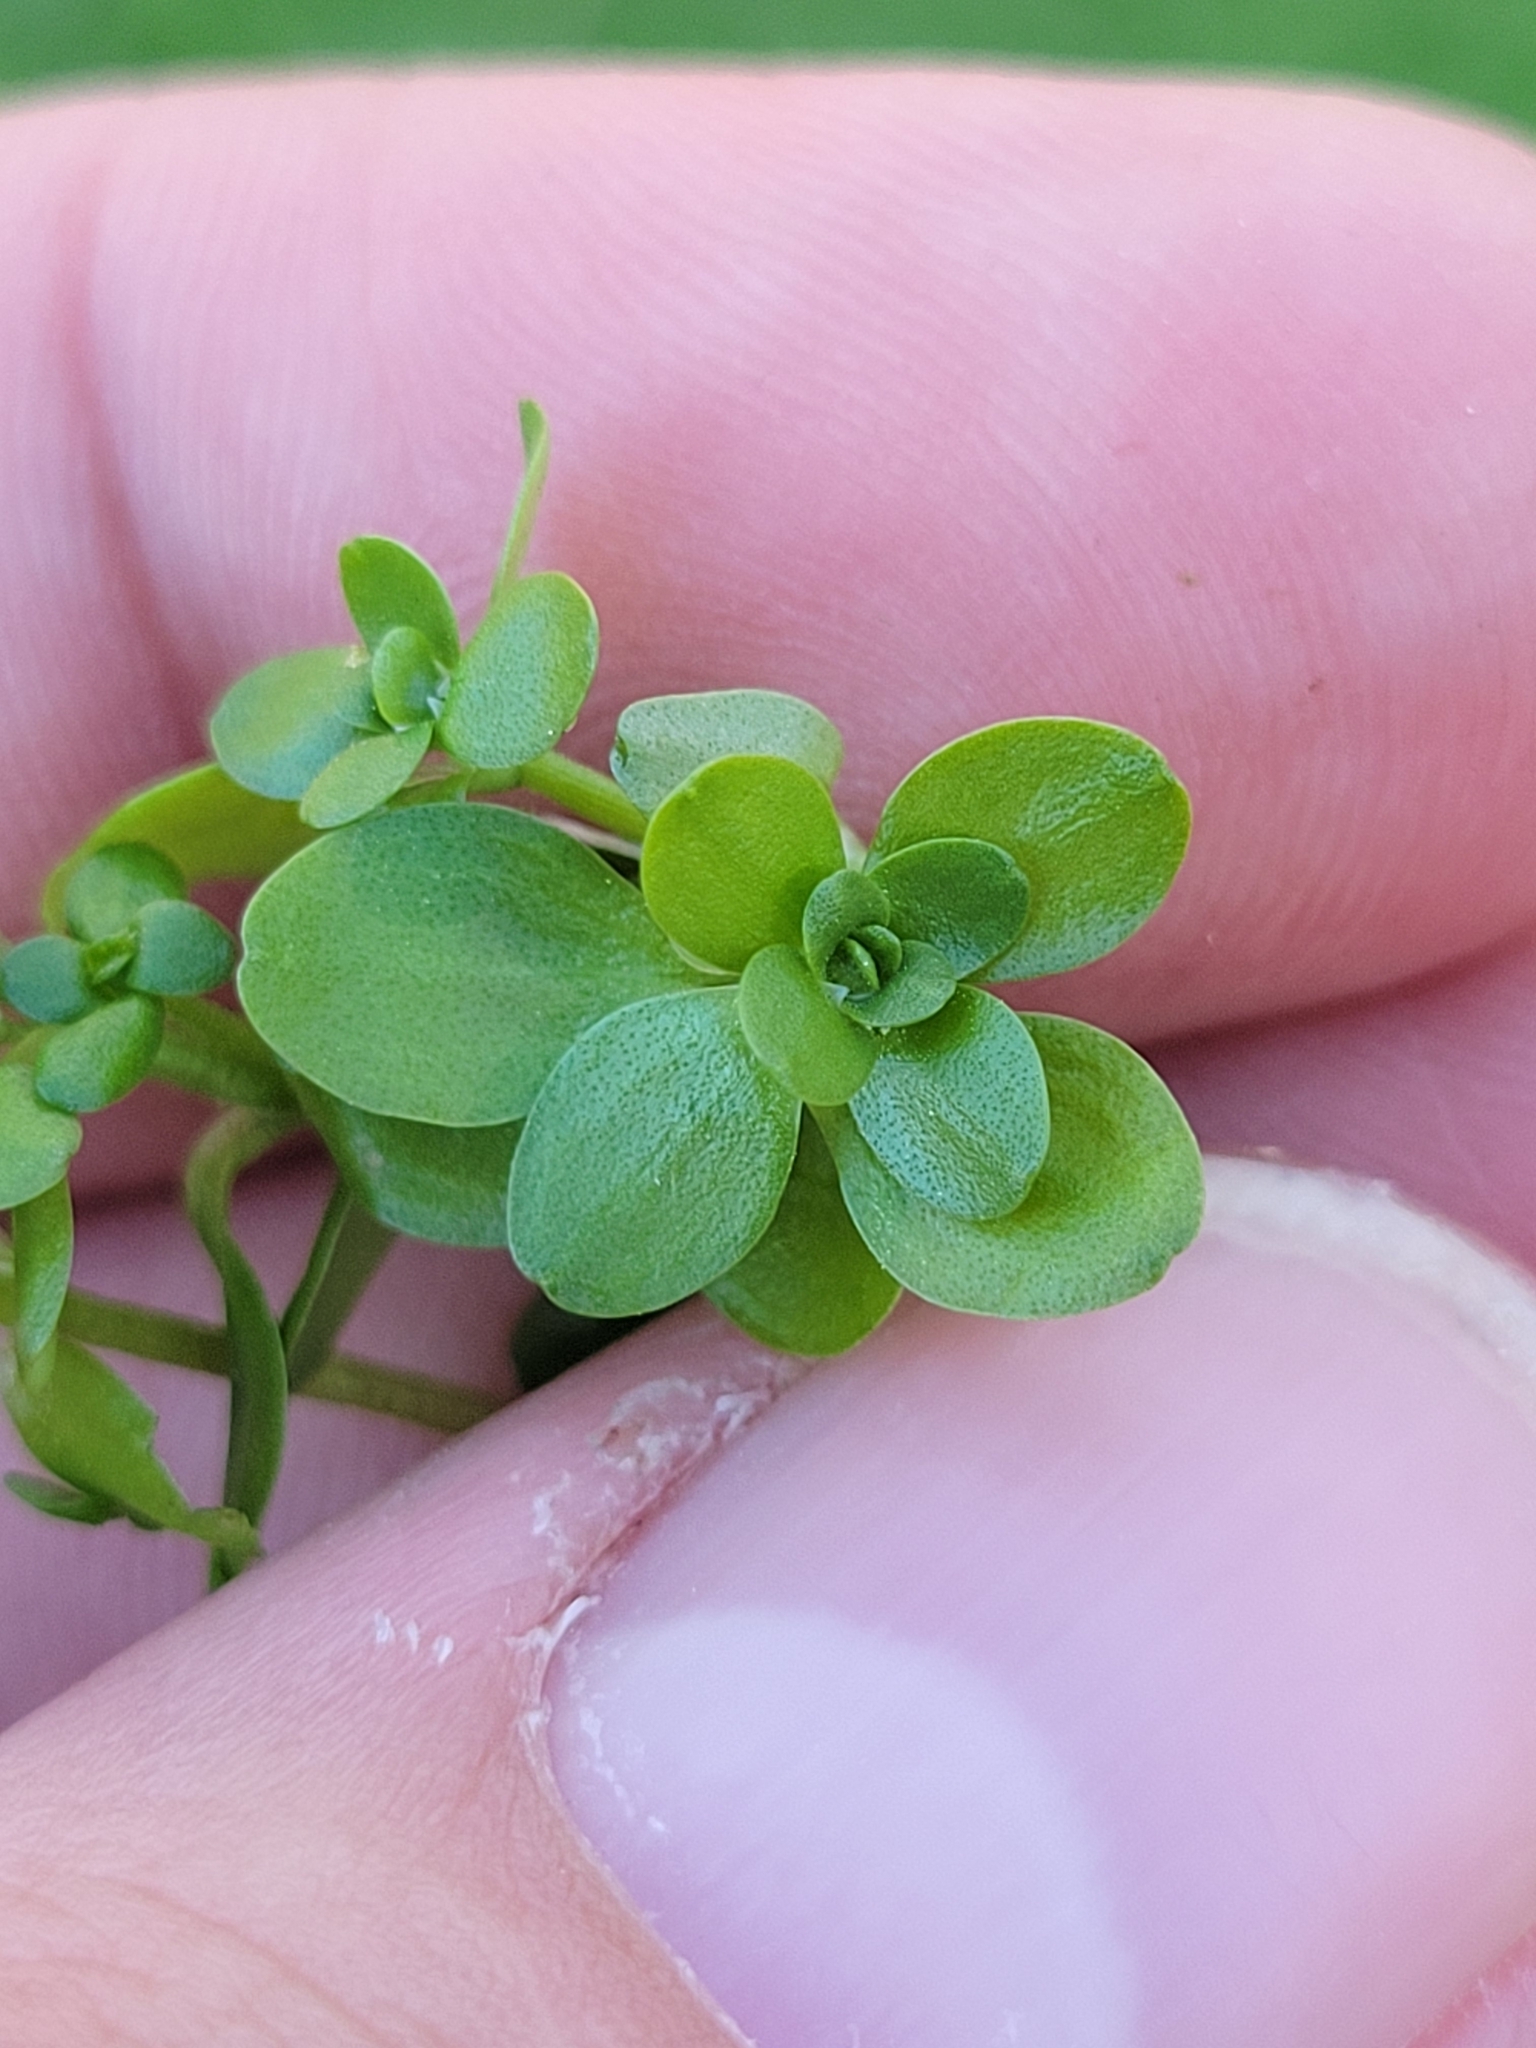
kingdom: Plantae
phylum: Tracheophyta
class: Magnoliopsida
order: Lamiales
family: Plantaginaceae
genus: Callitriche
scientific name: Callitriche stagnalis
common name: Common water-starwort
